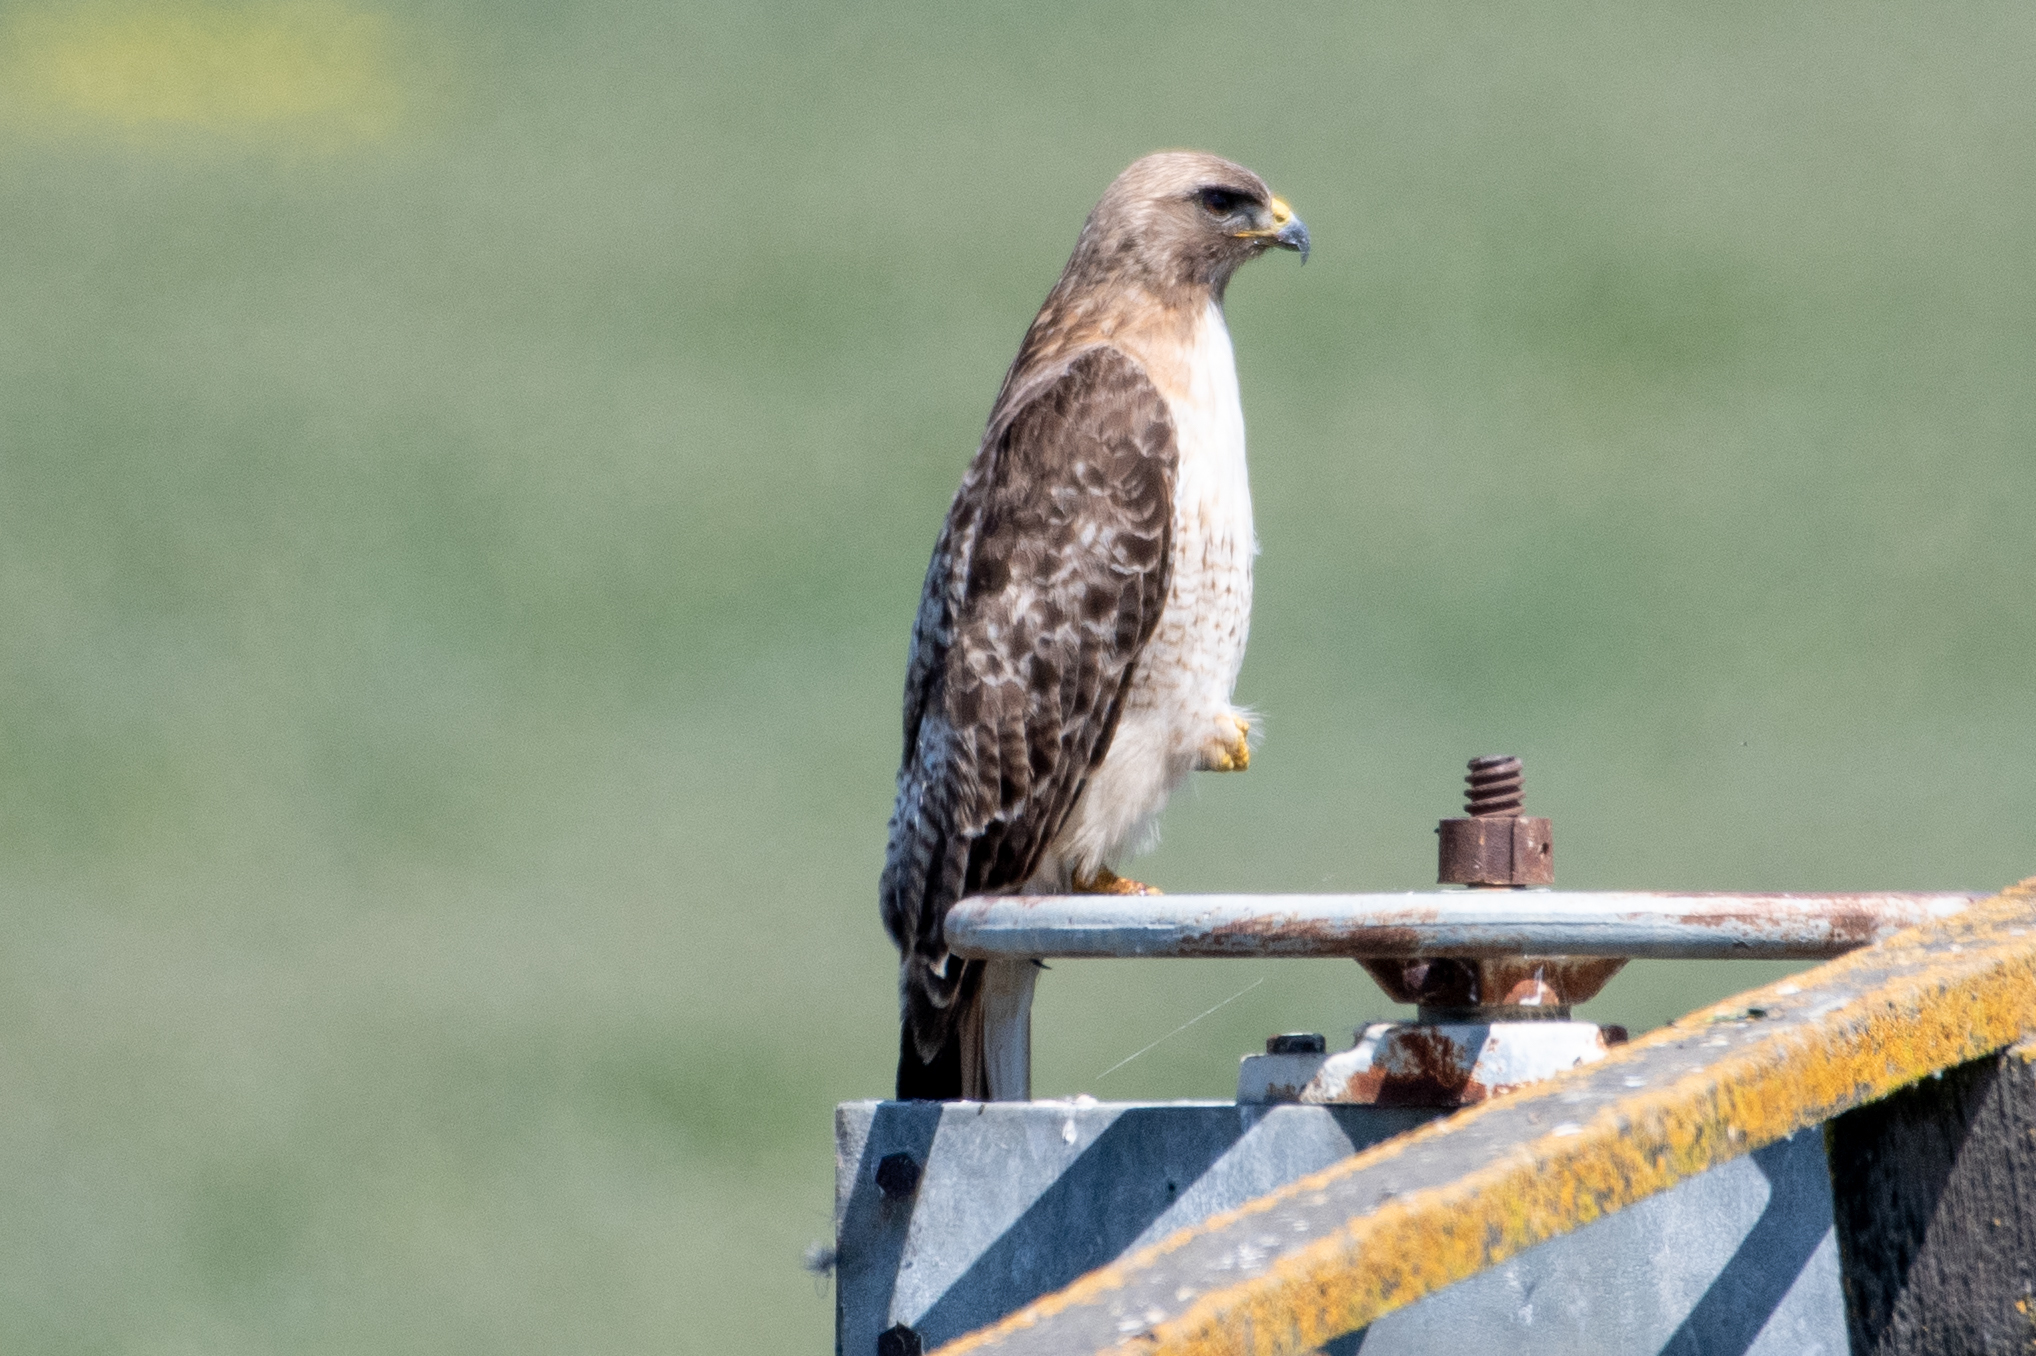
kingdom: Animalia
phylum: Chordata
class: Aves
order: Accipitriformes
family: Accipitridae
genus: Buteo
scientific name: Buteo jamaicensis
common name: Red-tailed hawk
